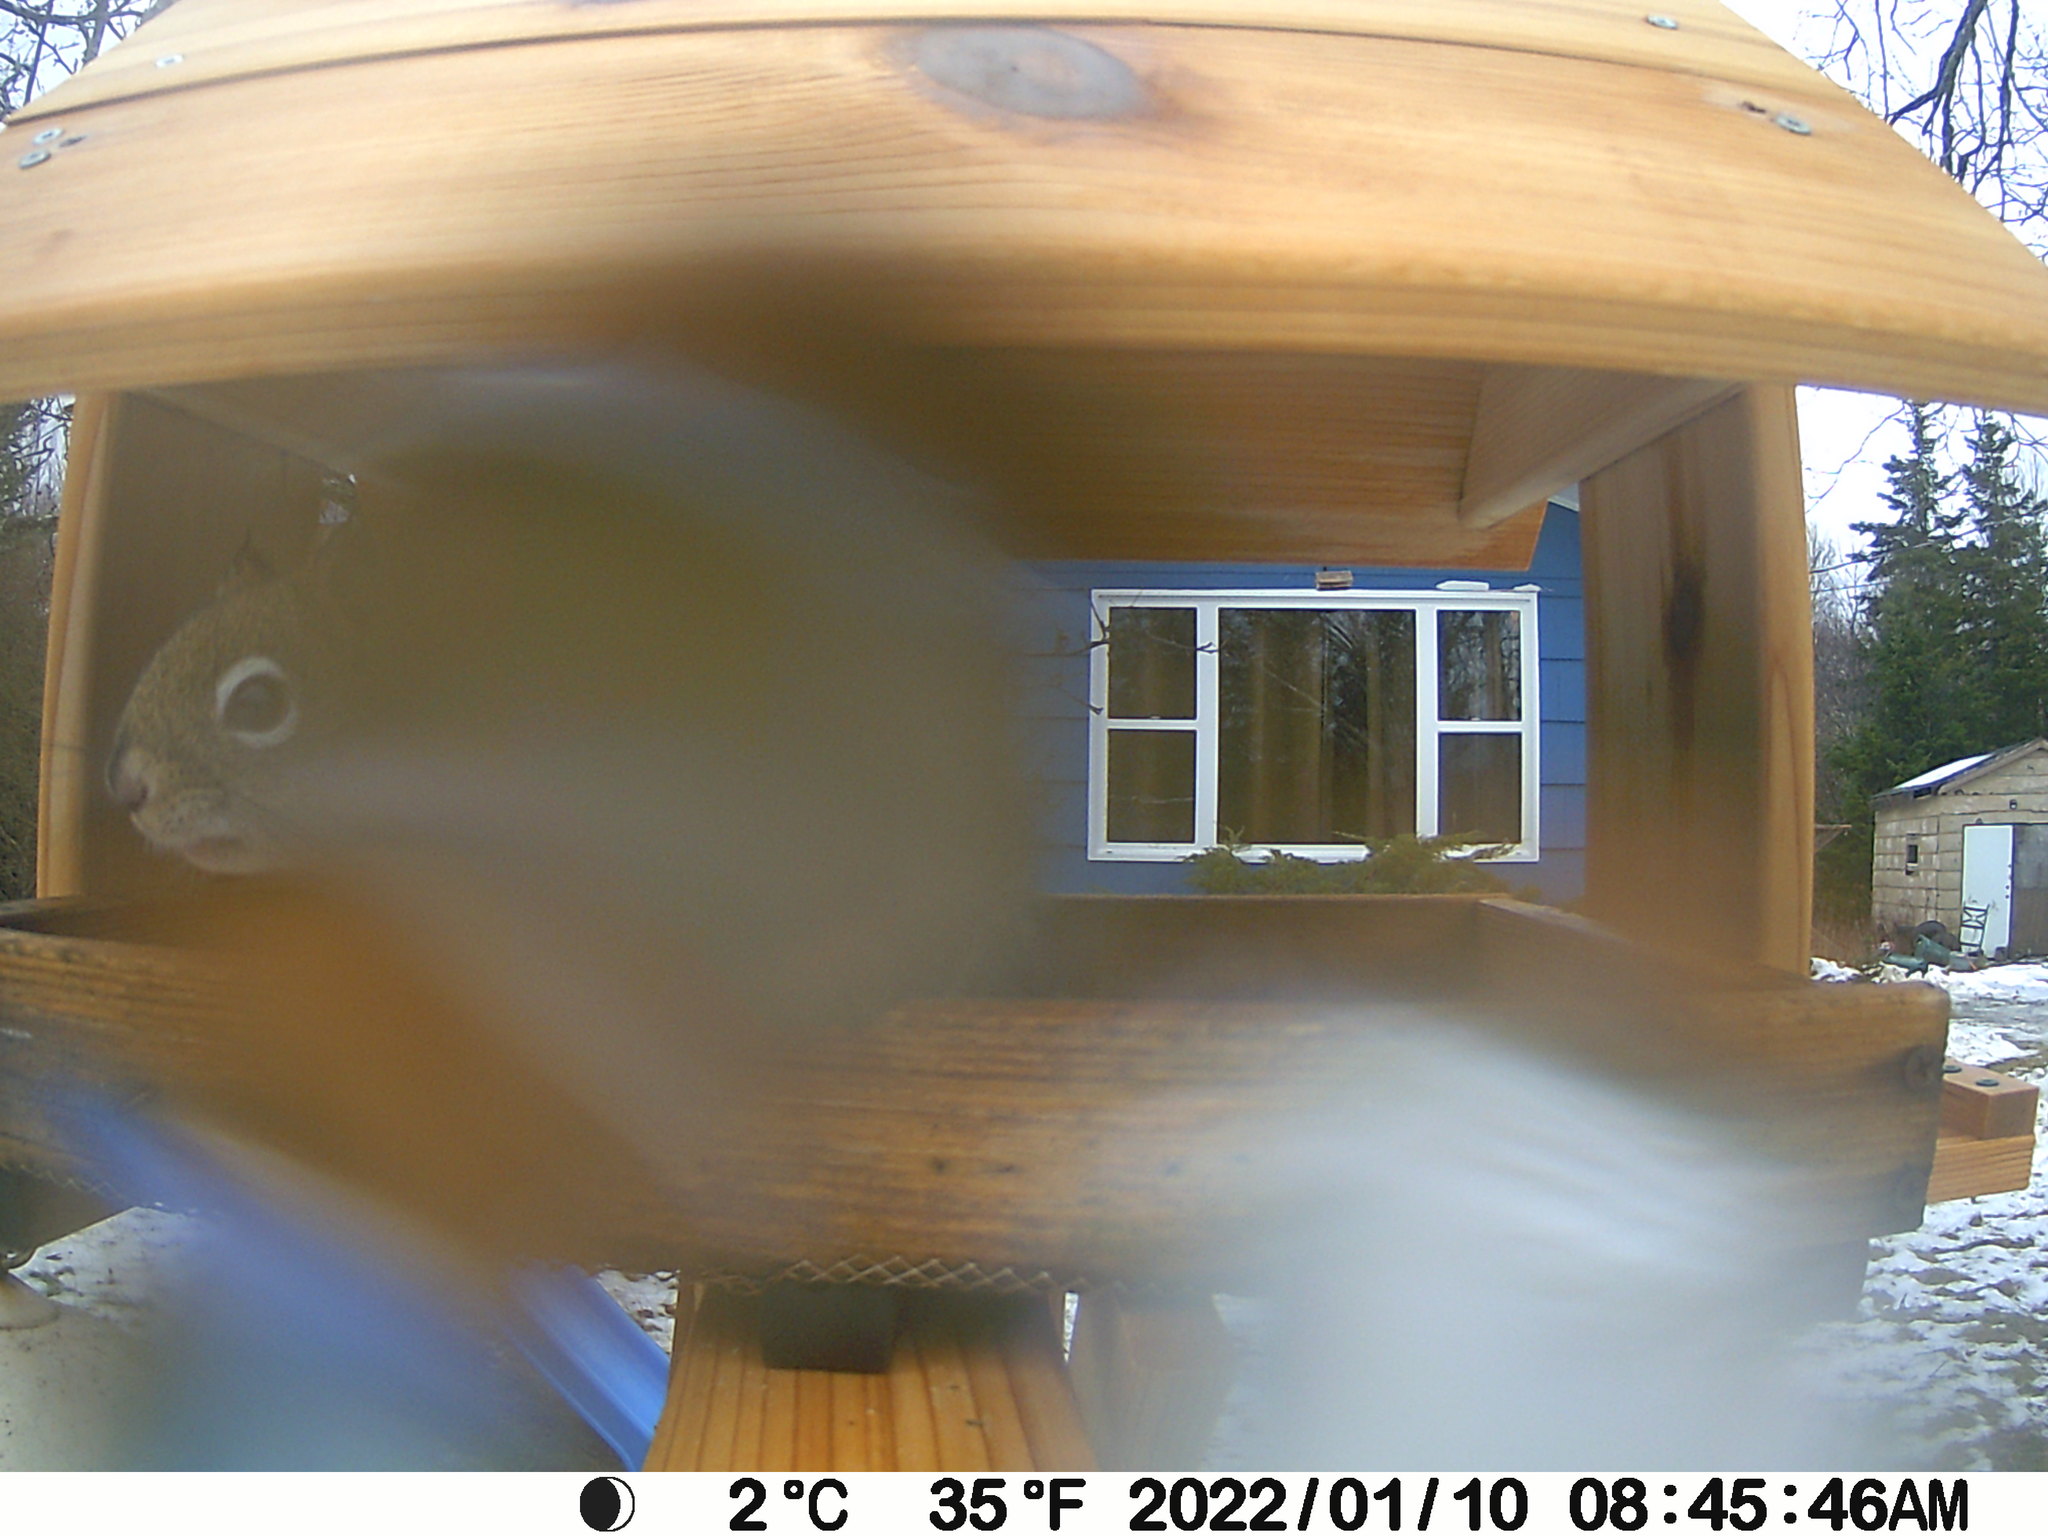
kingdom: Animalia
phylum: Chordata
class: Mammalia
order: Rodentia
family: Sciuridae
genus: Tamiasciurus
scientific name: Tamiasciurus hudsonicus
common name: Red squirrel
